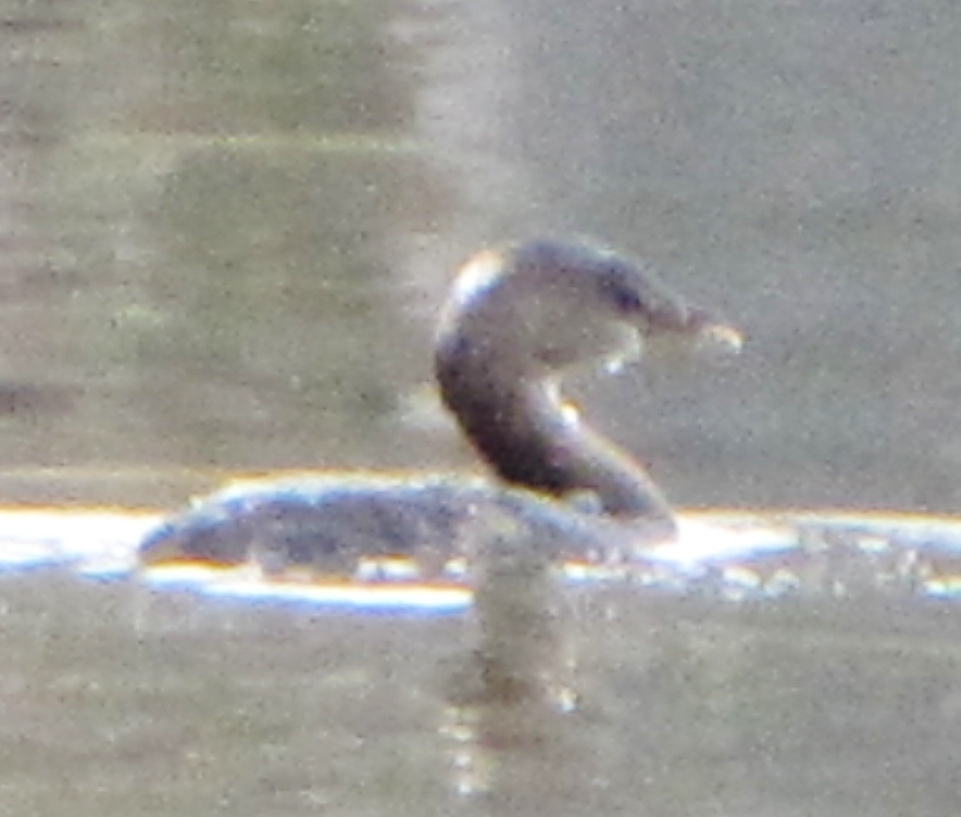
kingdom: Animalia
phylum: Chordata
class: Aves
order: Podicipediformes
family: Podicipedidae
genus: Podilymbus
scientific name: Podilymbus podiceps
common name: Pied-billed grebe
